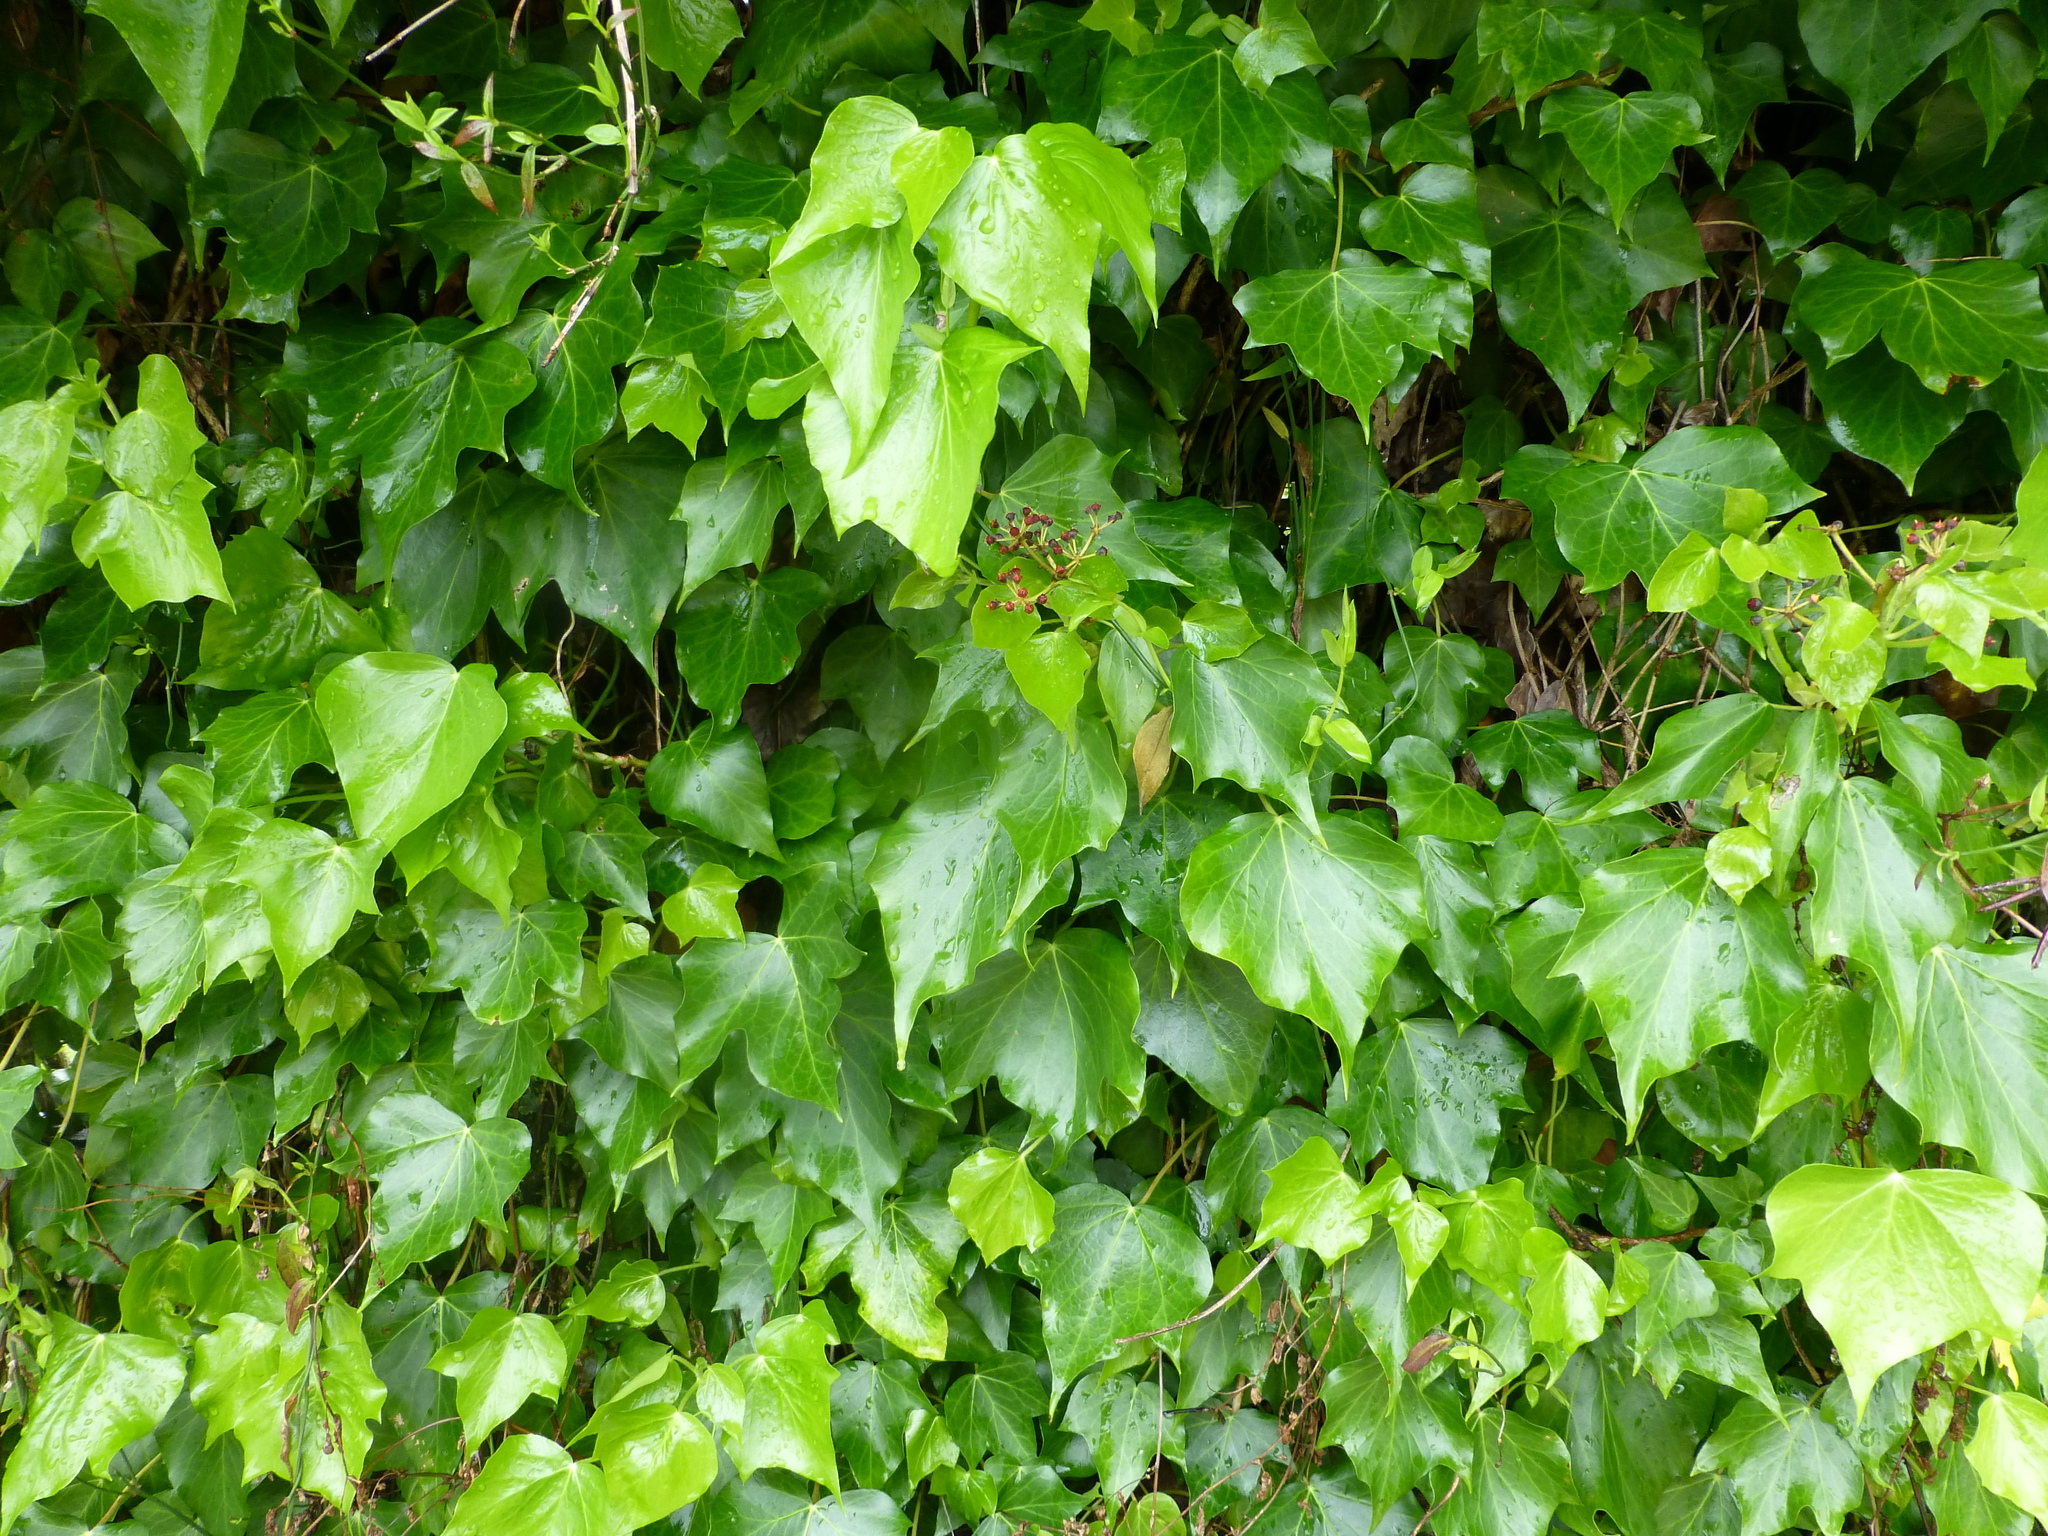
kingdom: Plantae
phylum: Tracheophyta
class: Magnoliopsida
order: Apiales
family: Araliaceae
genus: Hedera
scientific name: Hedera helix
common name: Ivy
